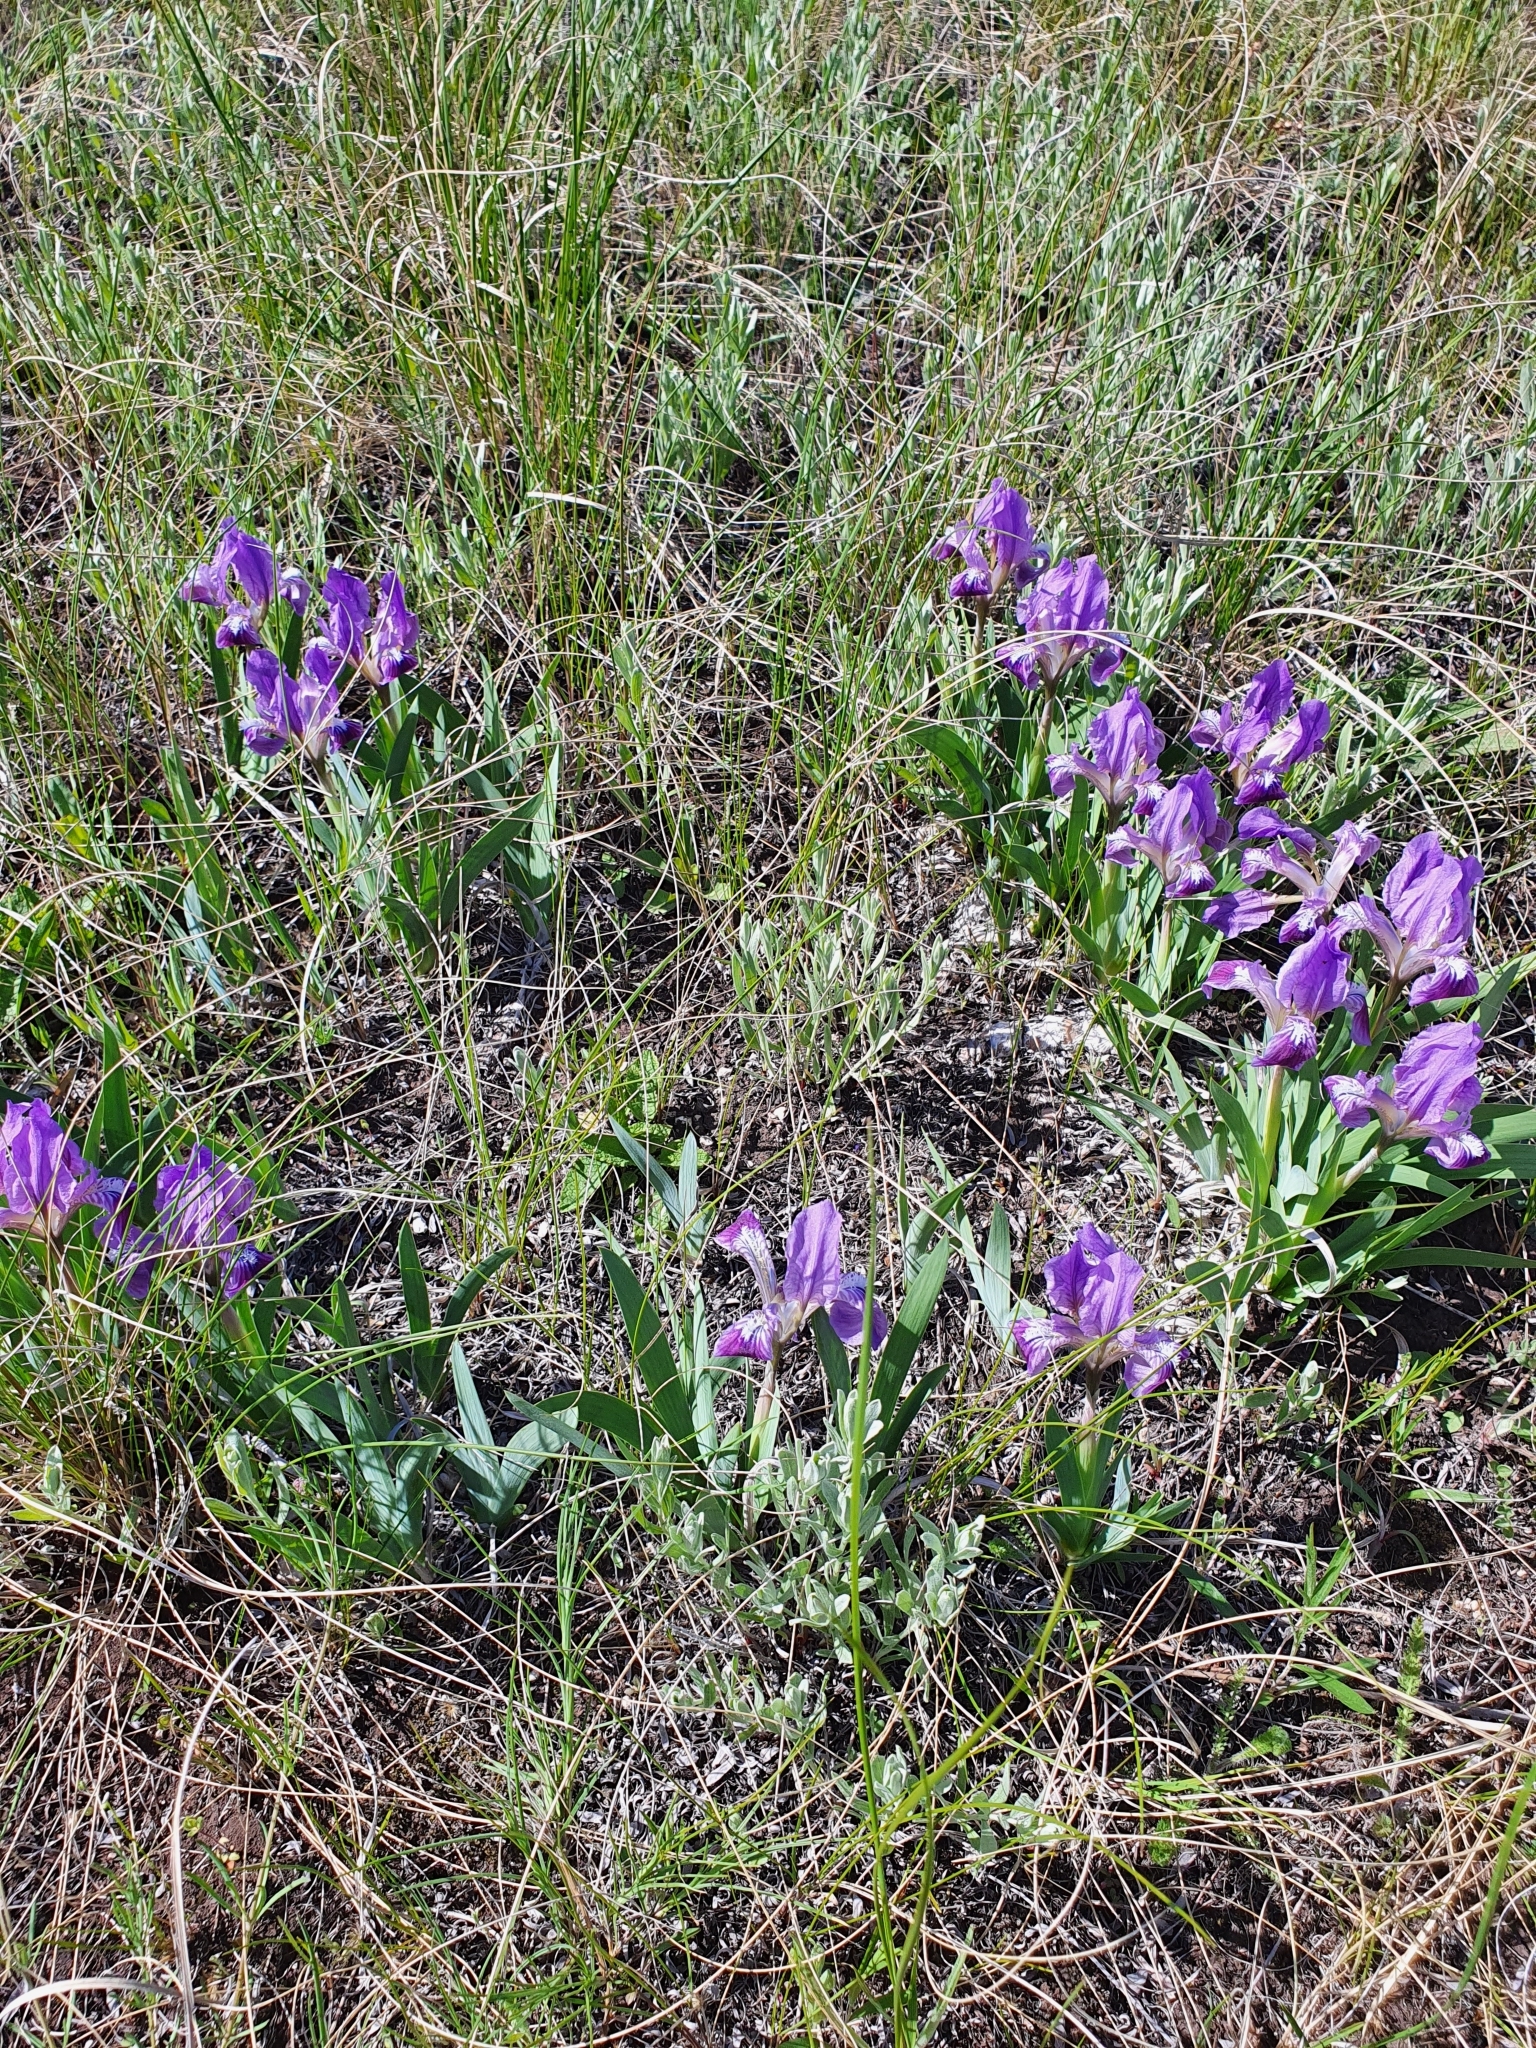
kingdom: Plantae
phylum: Tracheophyta
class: Liliopsida
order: Asparagales
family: Iridaceae
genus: Iris
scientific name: Iris pumila
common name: Dwarf iris
